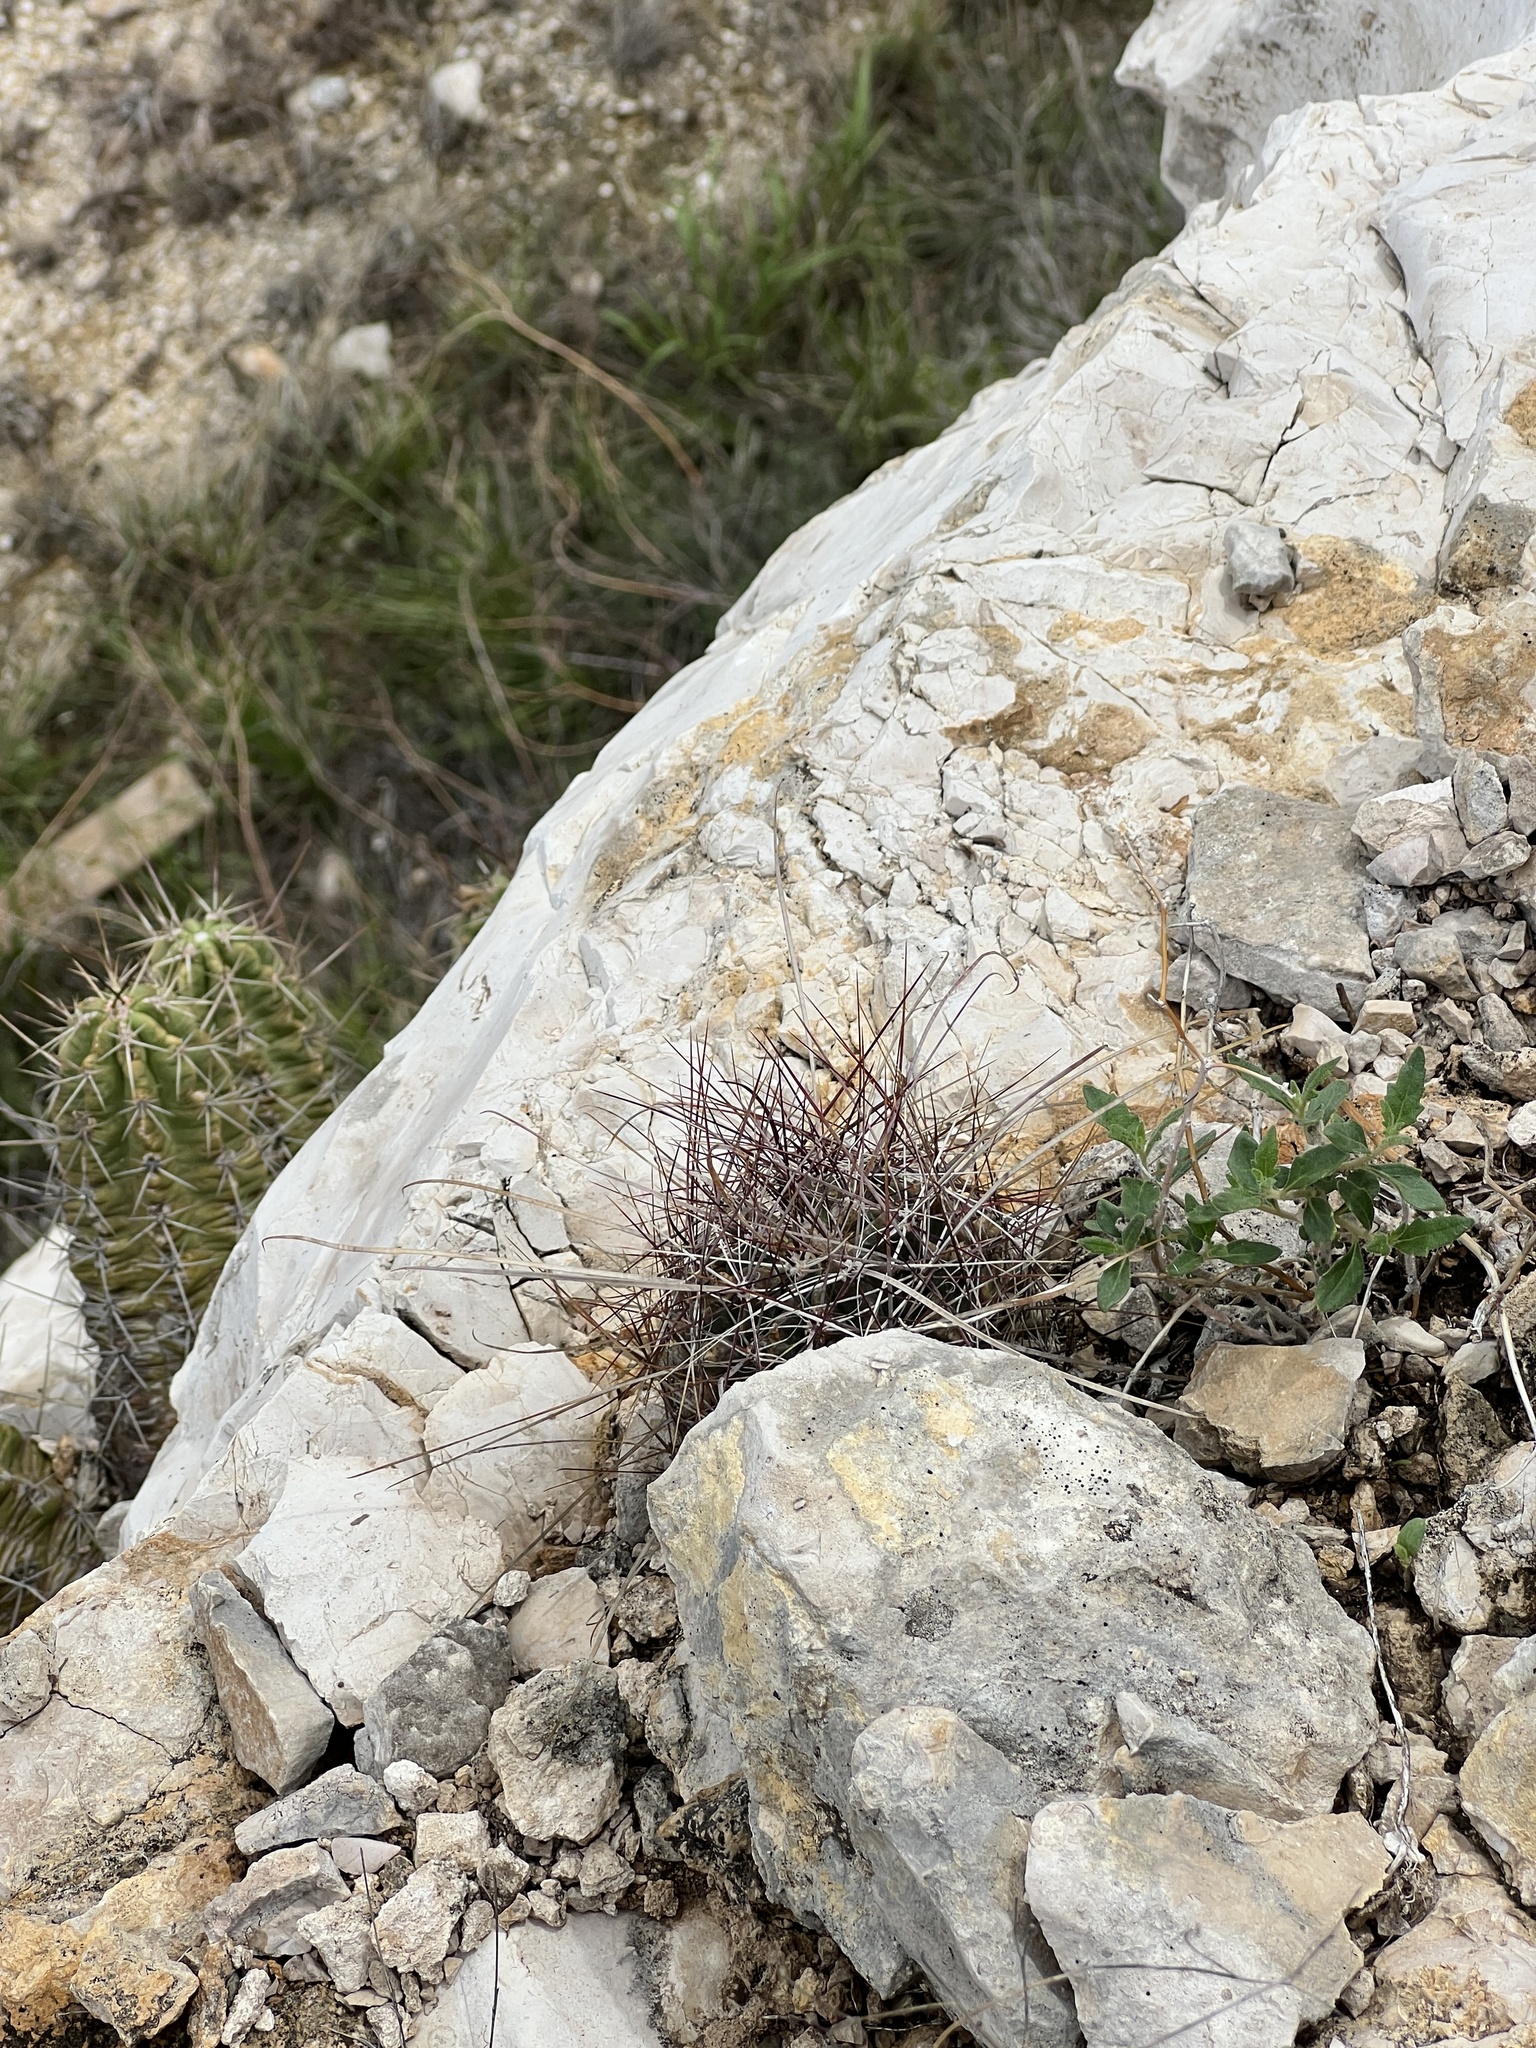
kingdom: Plantae
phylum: Tracheophyta
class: Magnoliopsida
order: Caryophyllales
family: Cactaceae
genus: Bisnaga
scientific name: Bisnaga hamatacantha
